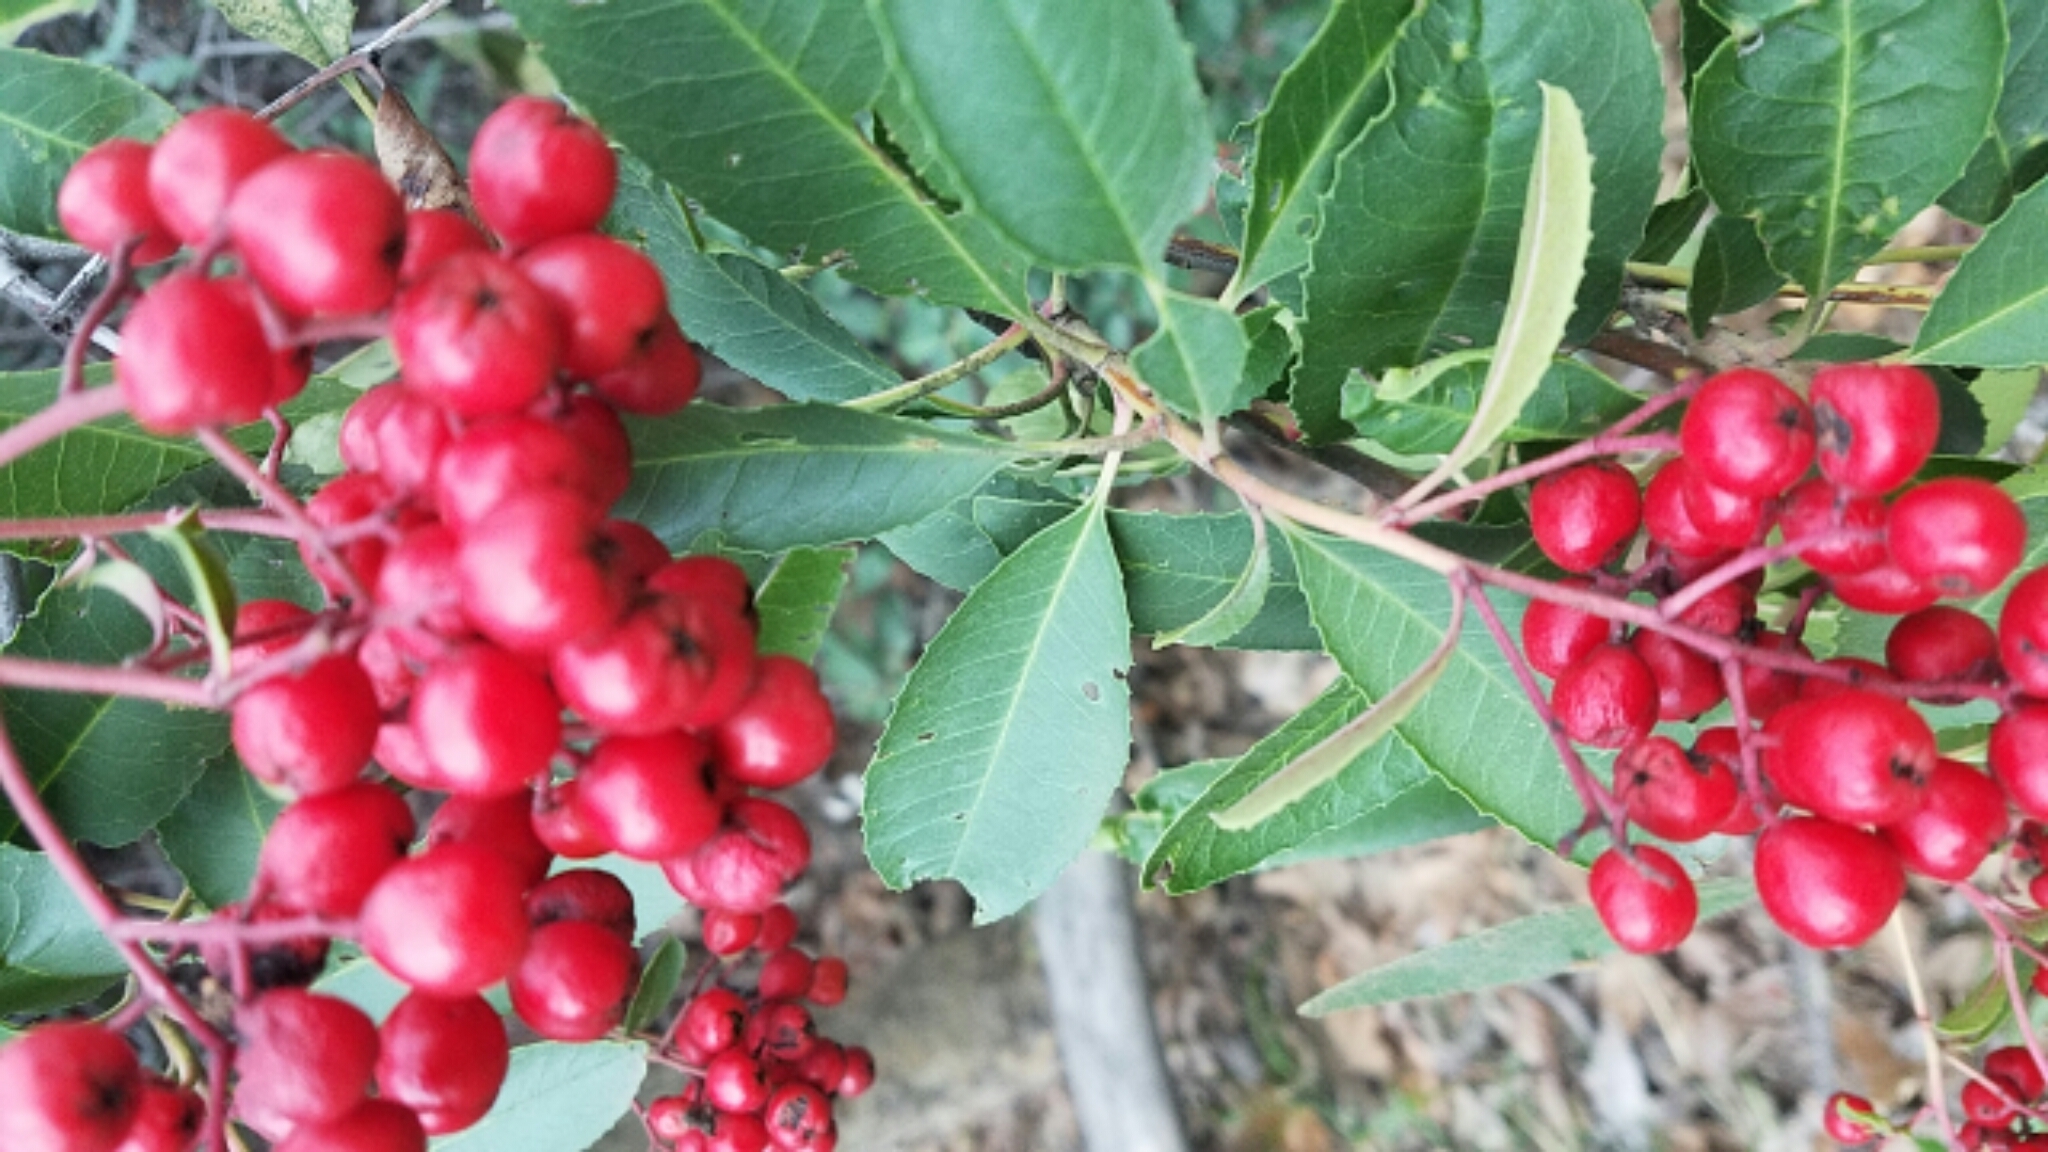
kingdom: Plantae
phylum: Tracheophyta
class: Magnoliopsida
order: Rosales
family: Rosaceae
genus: Heteromeles
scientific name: Heteromeles arbutifolia
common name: California-holly
